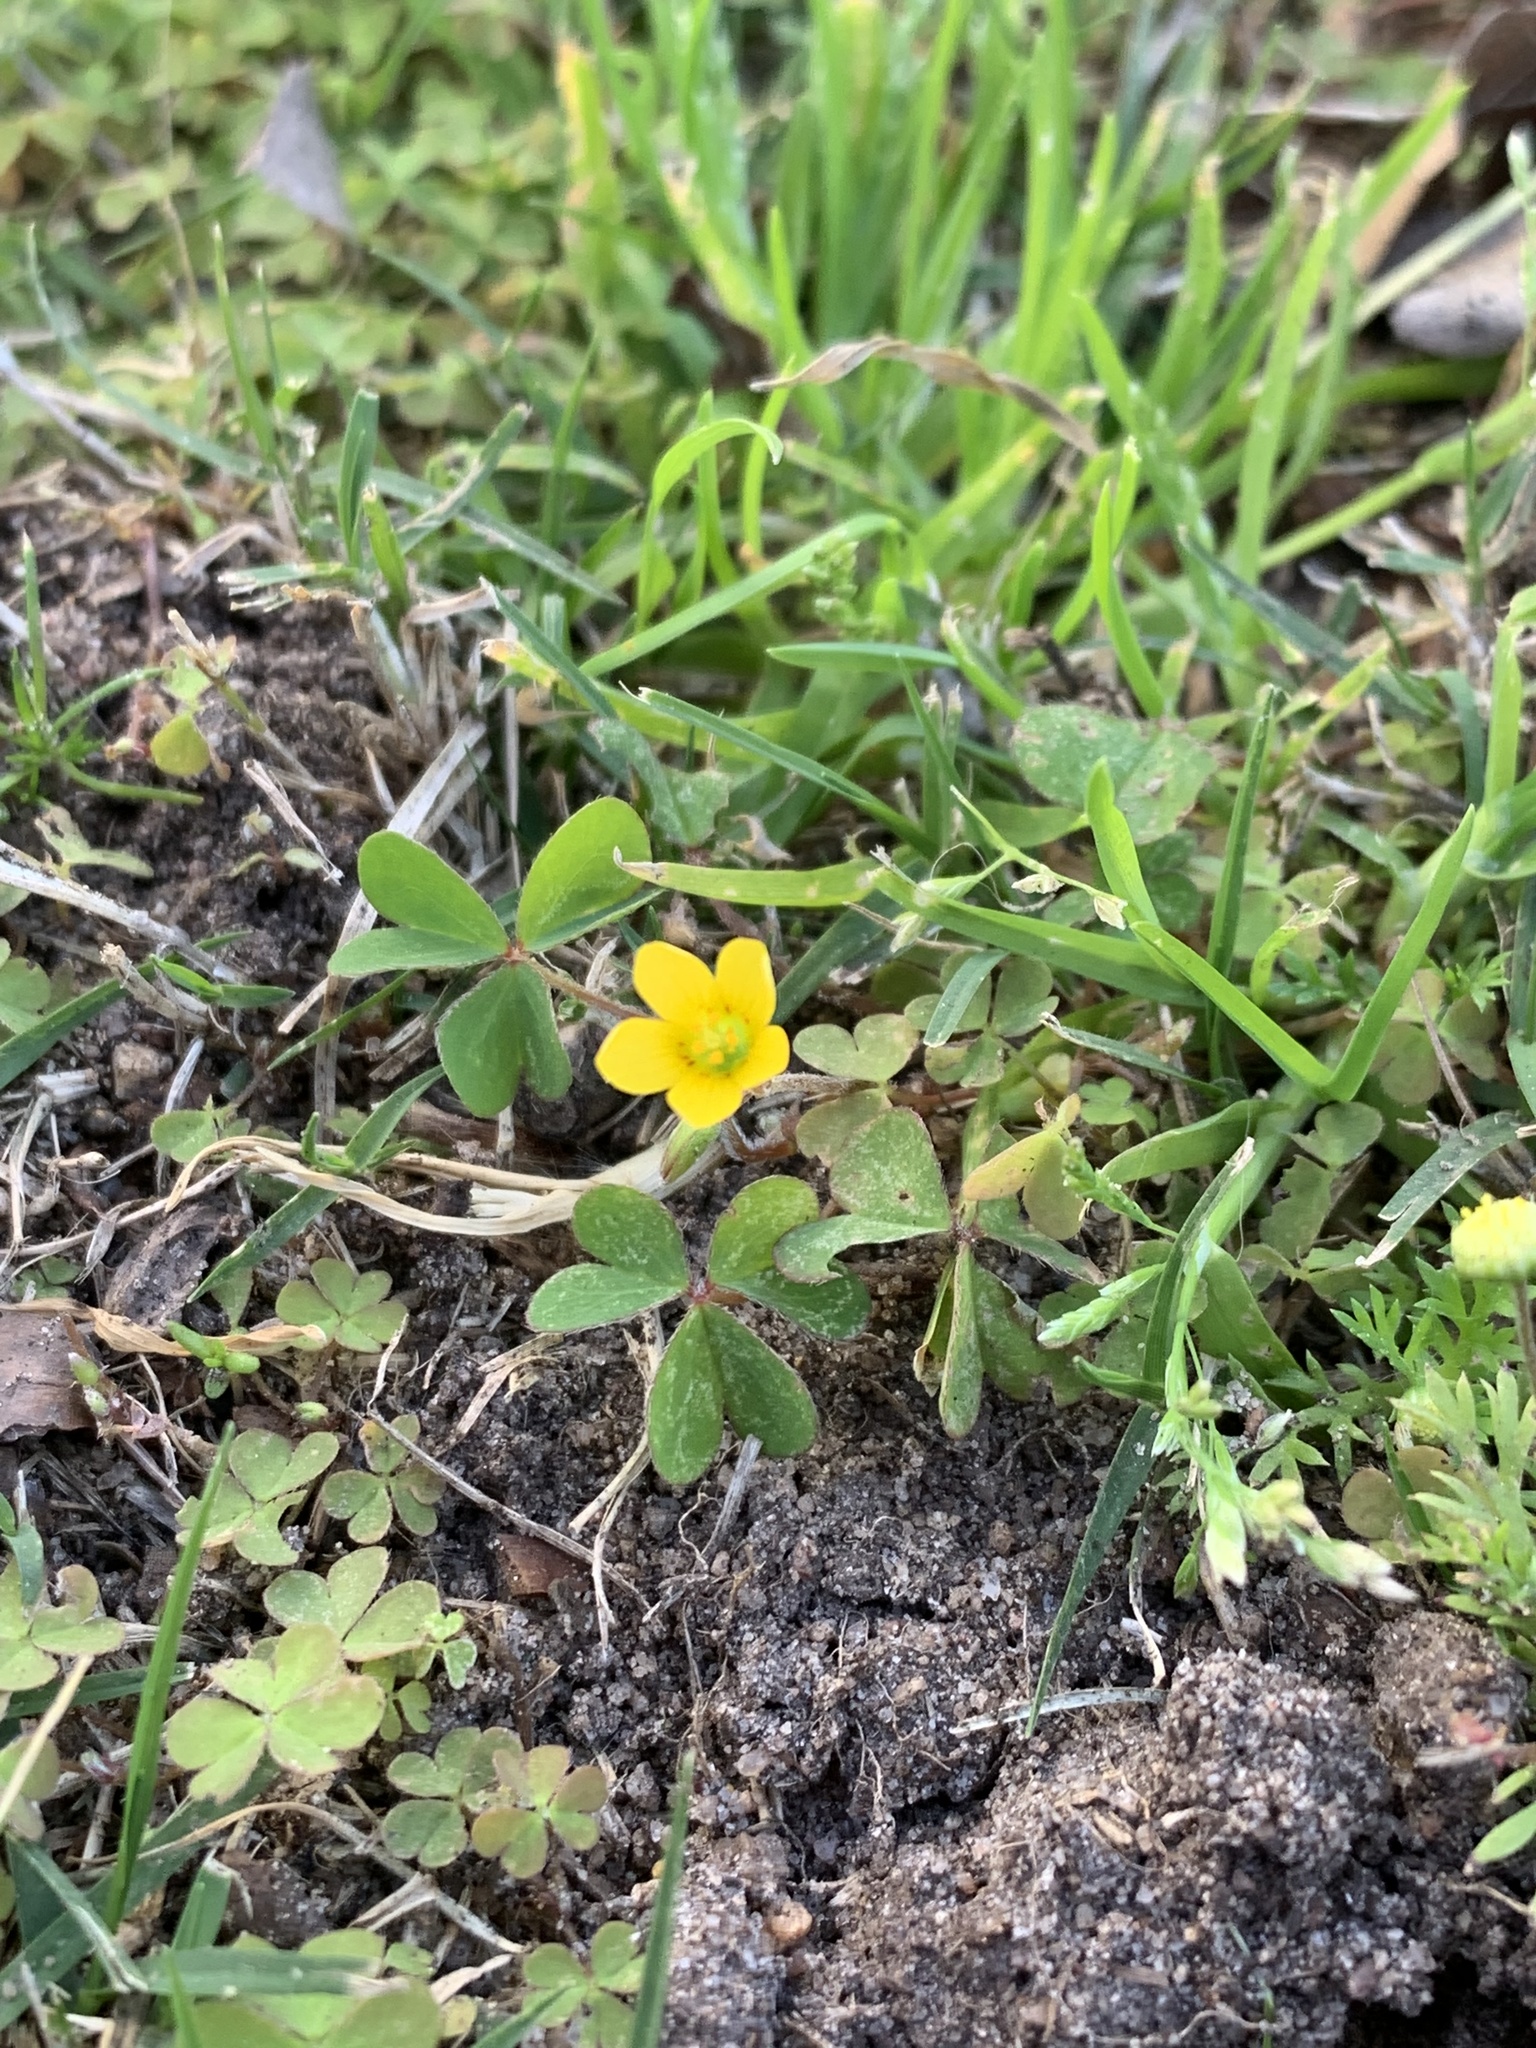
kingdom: Plantae
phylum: Tracheophyta
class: Magnoliopsida
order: Oxalidales
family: Oxalidaceae
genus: Oxalis
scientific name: Oxalis corniculata
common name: Procumbent yellow-sorrel
